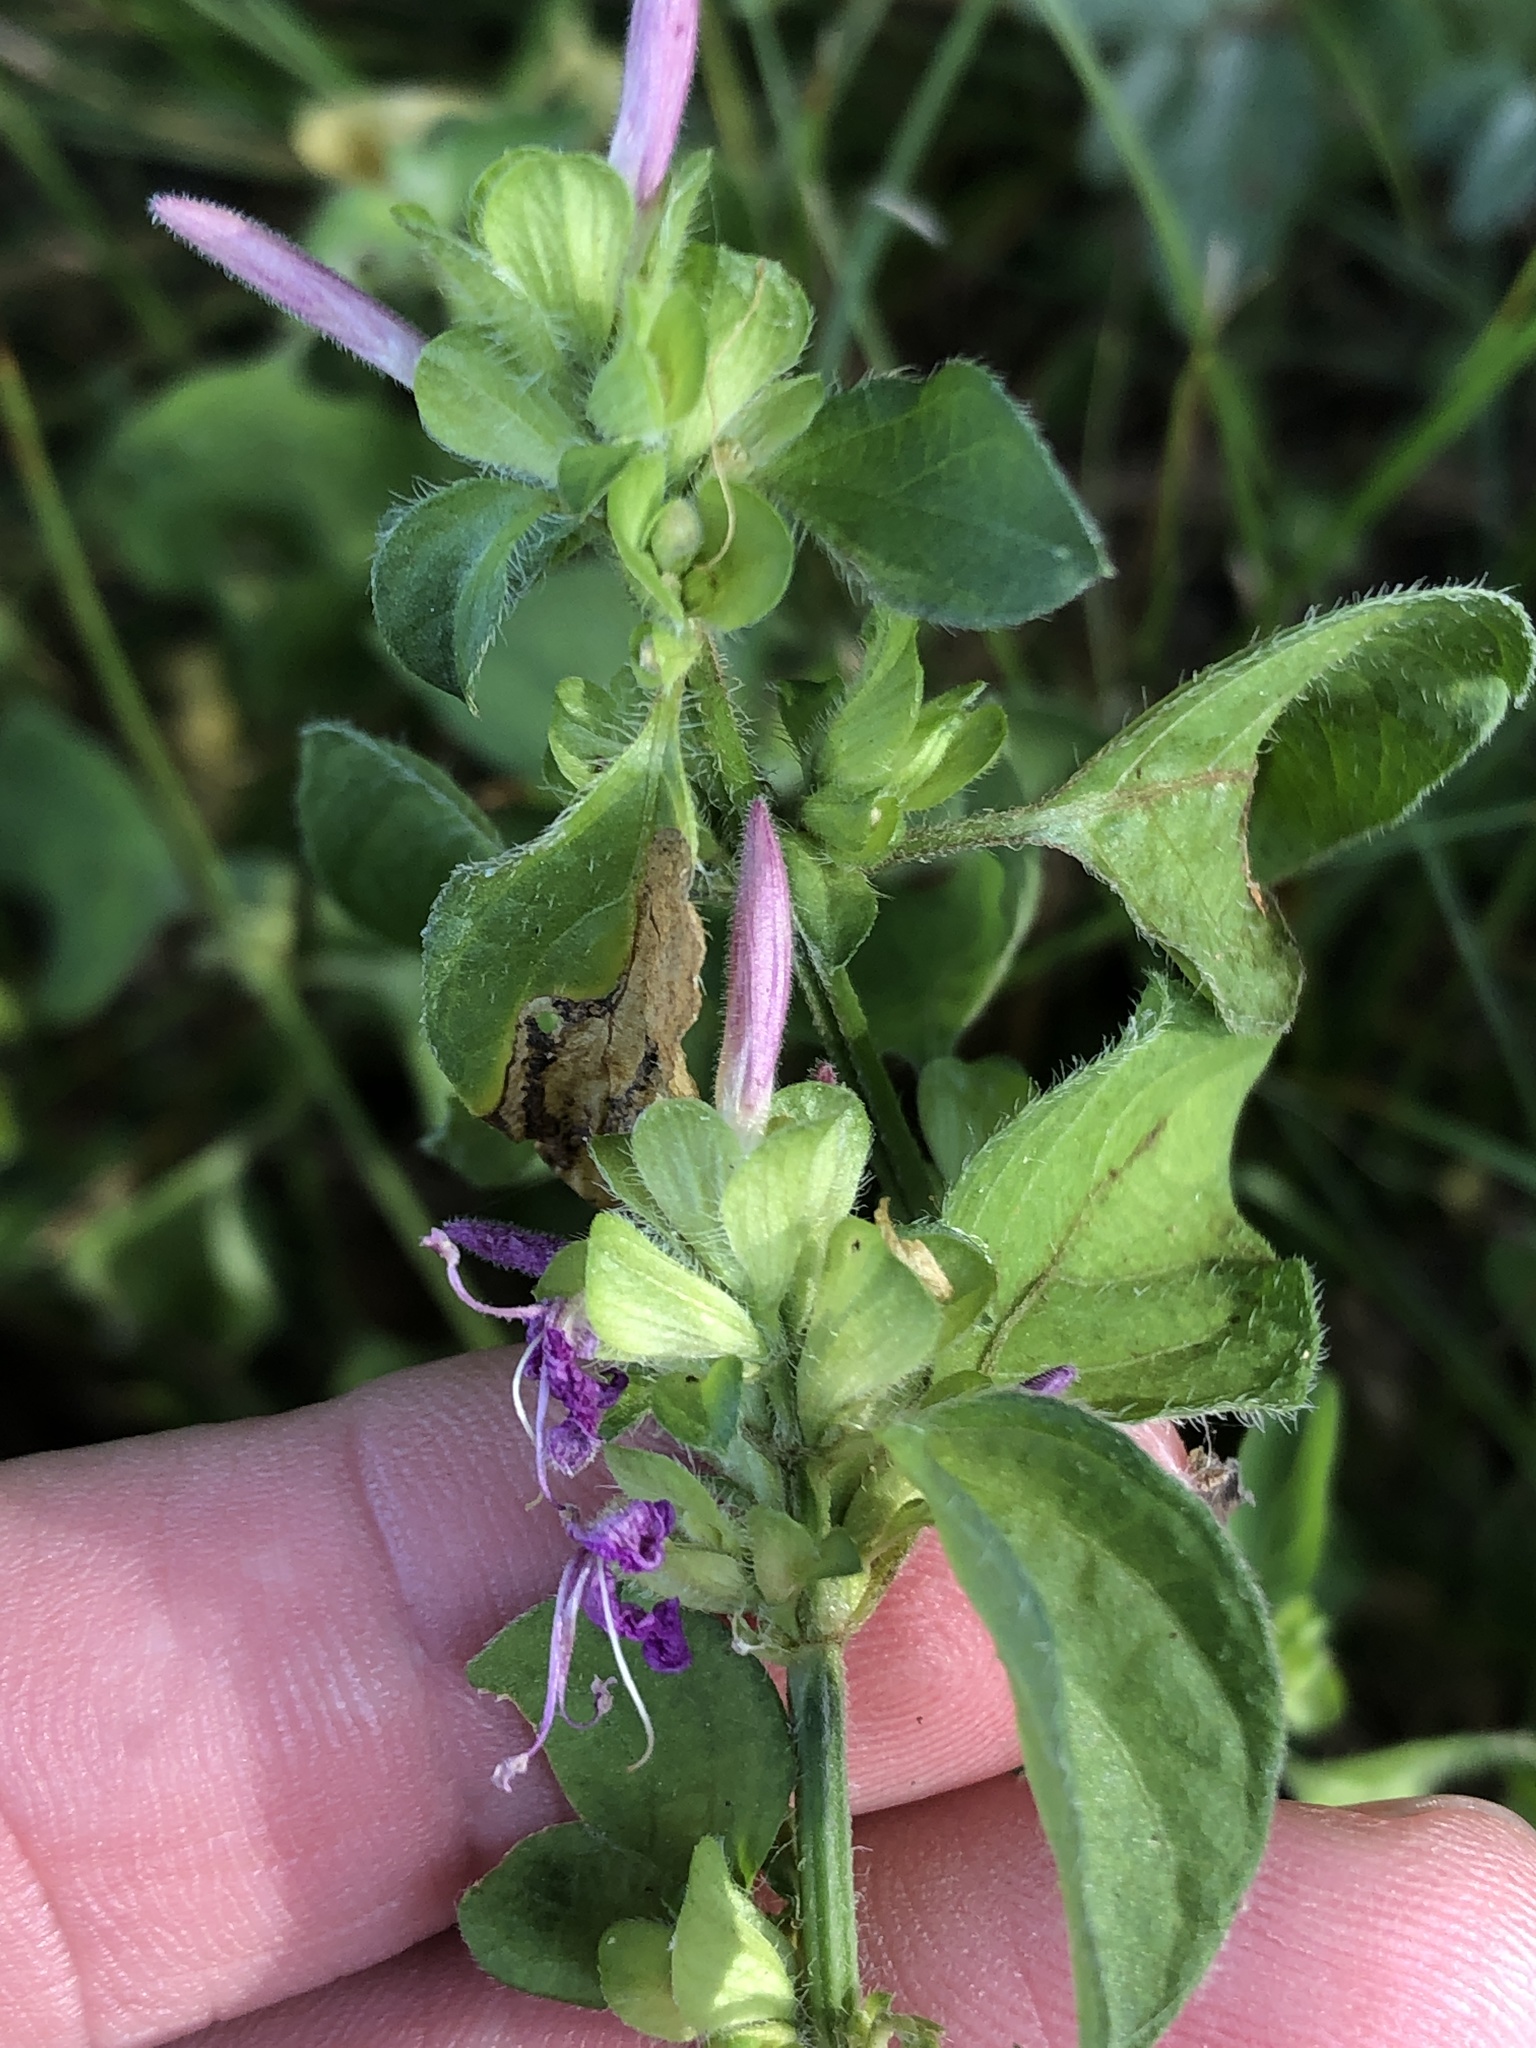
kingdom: Plantae
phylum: Tracheophyta
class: Magnoliopsida
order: Lamiales
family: Acanthaceae
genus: Dicliptera
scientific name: Dicliptera brachiata
